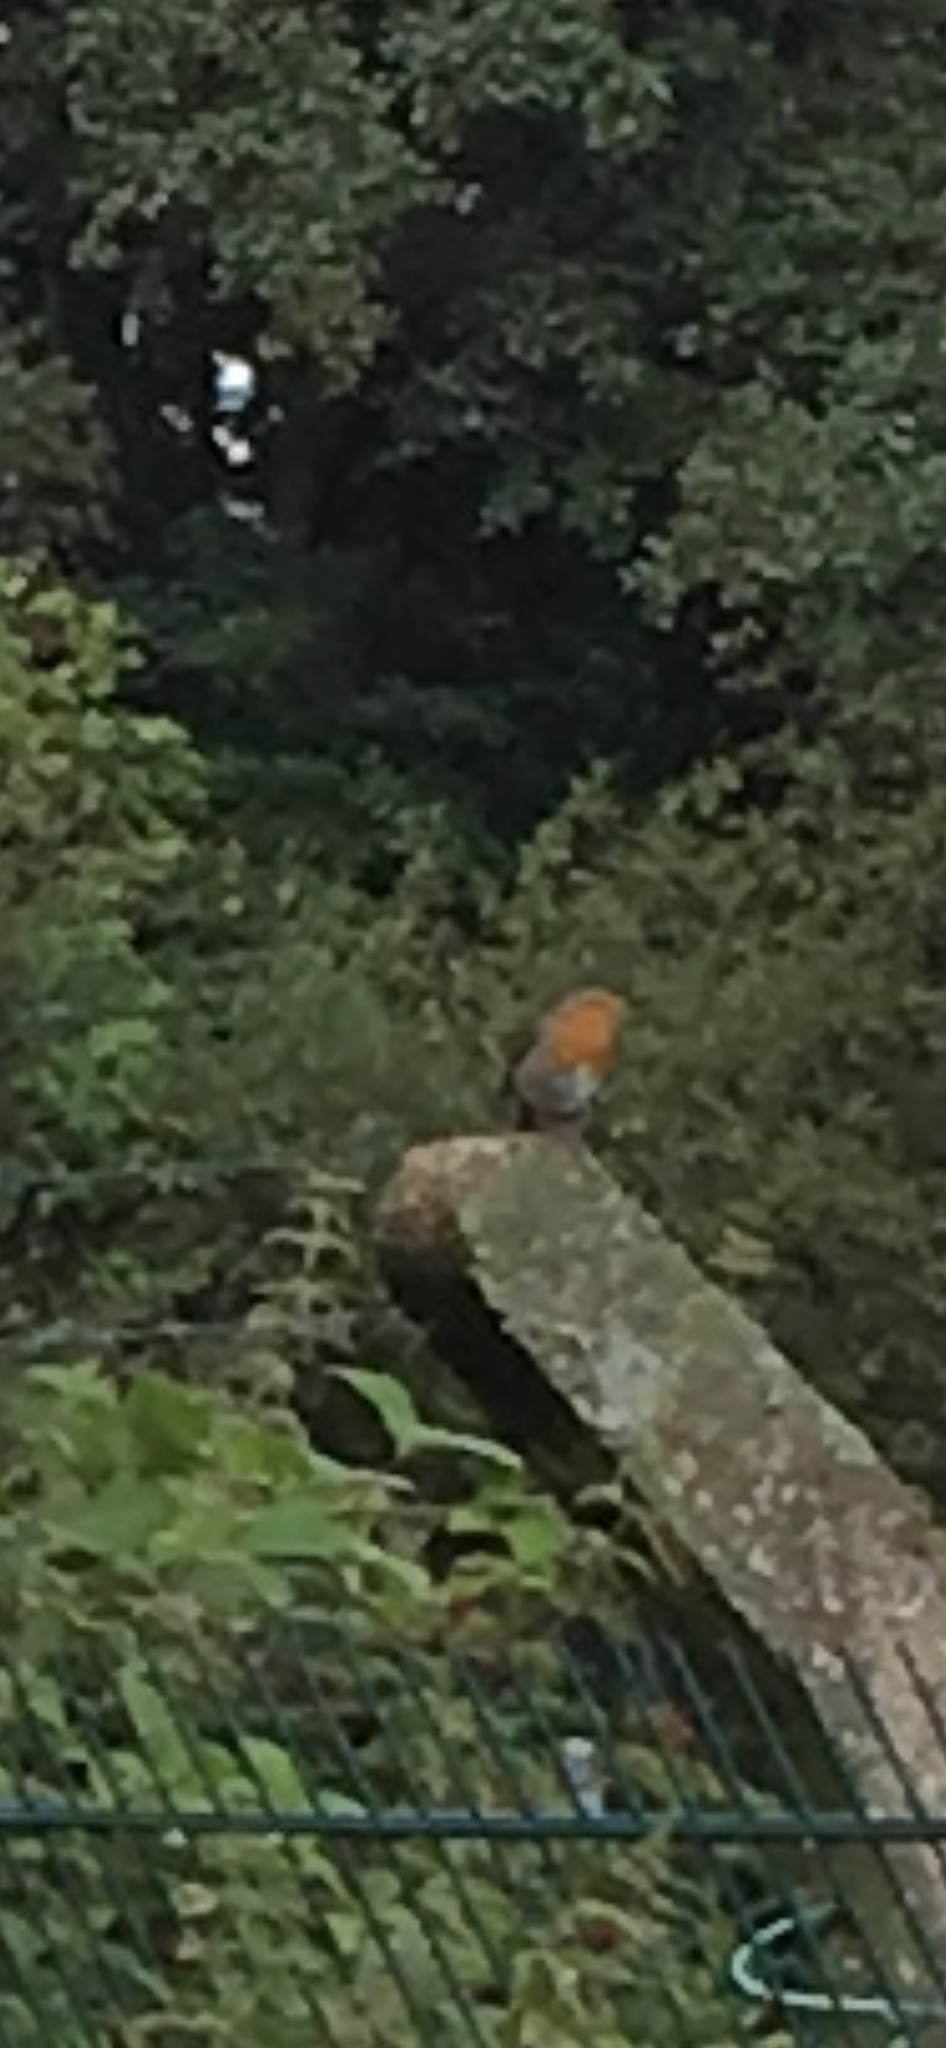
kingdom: Animalia
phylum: Chordata
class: Aves
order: Passeriformes
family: Muscicapidae
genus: Erithacus
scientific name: Erithacus rubecula
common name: European robin
